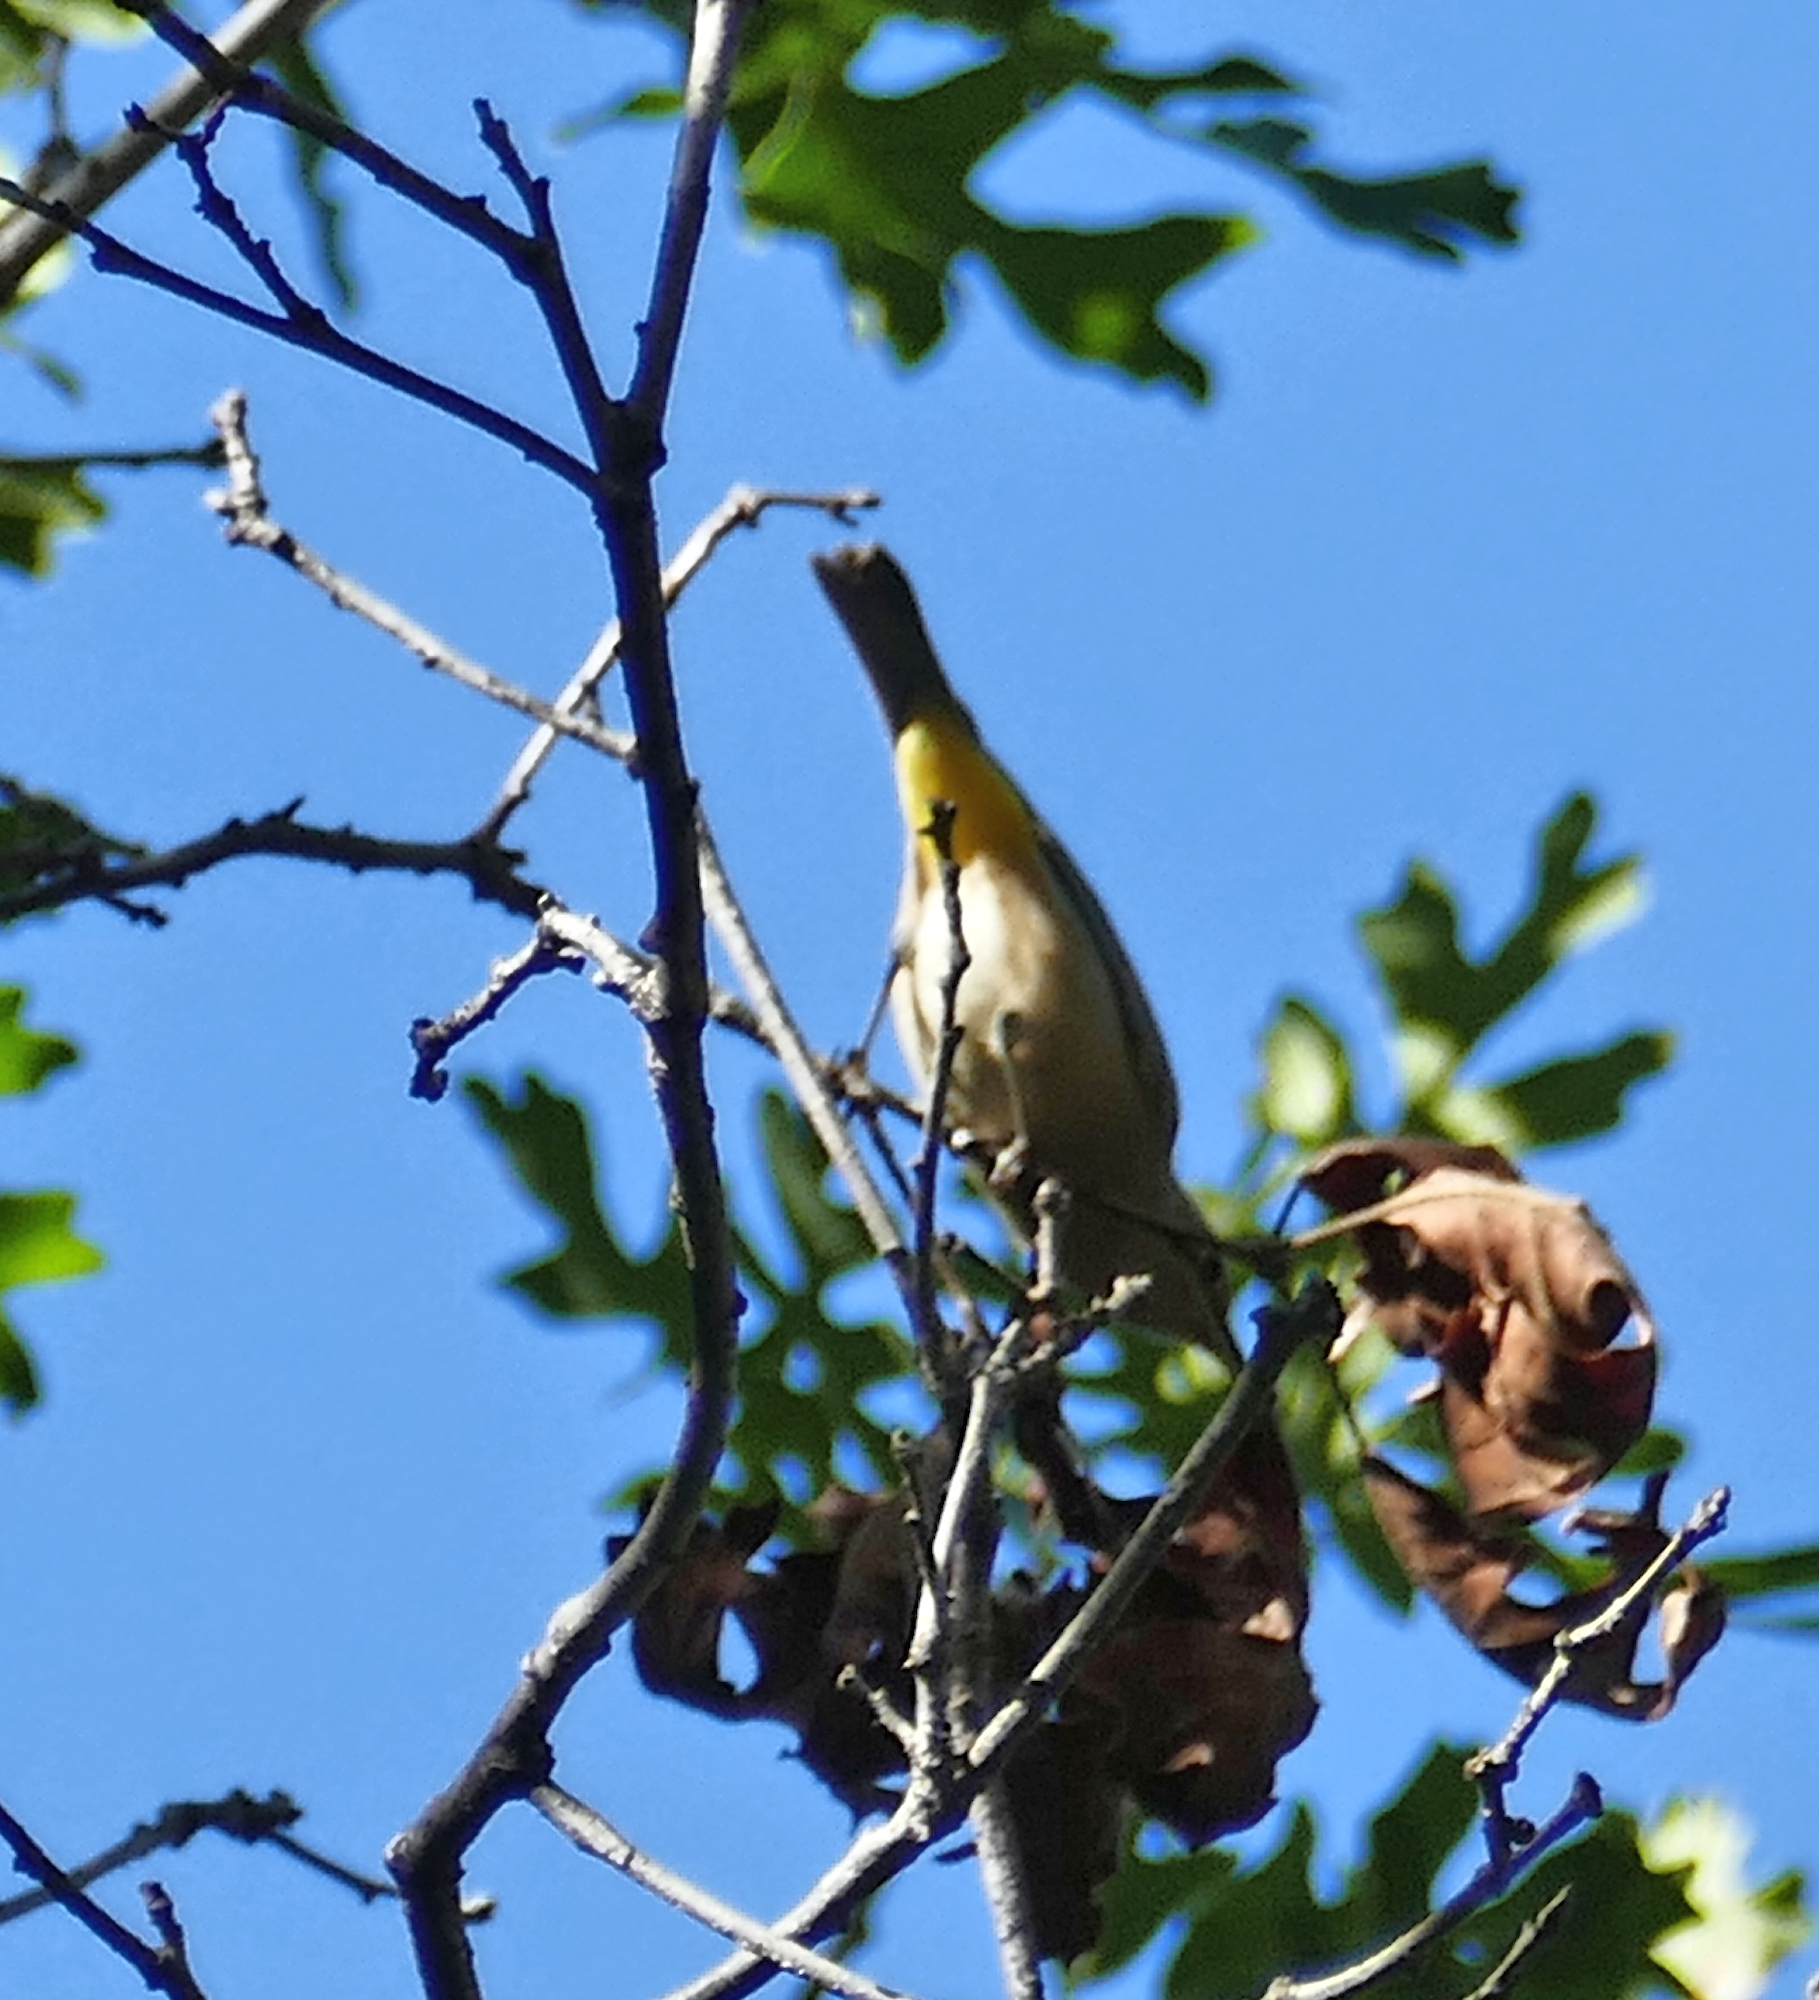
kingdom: Animalia
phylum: Chordata
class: Aves
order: Passeriformes
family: Parulidae
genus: Leiothlypis
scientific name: Leiothlypis virginiae
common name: Virginia's warbler
